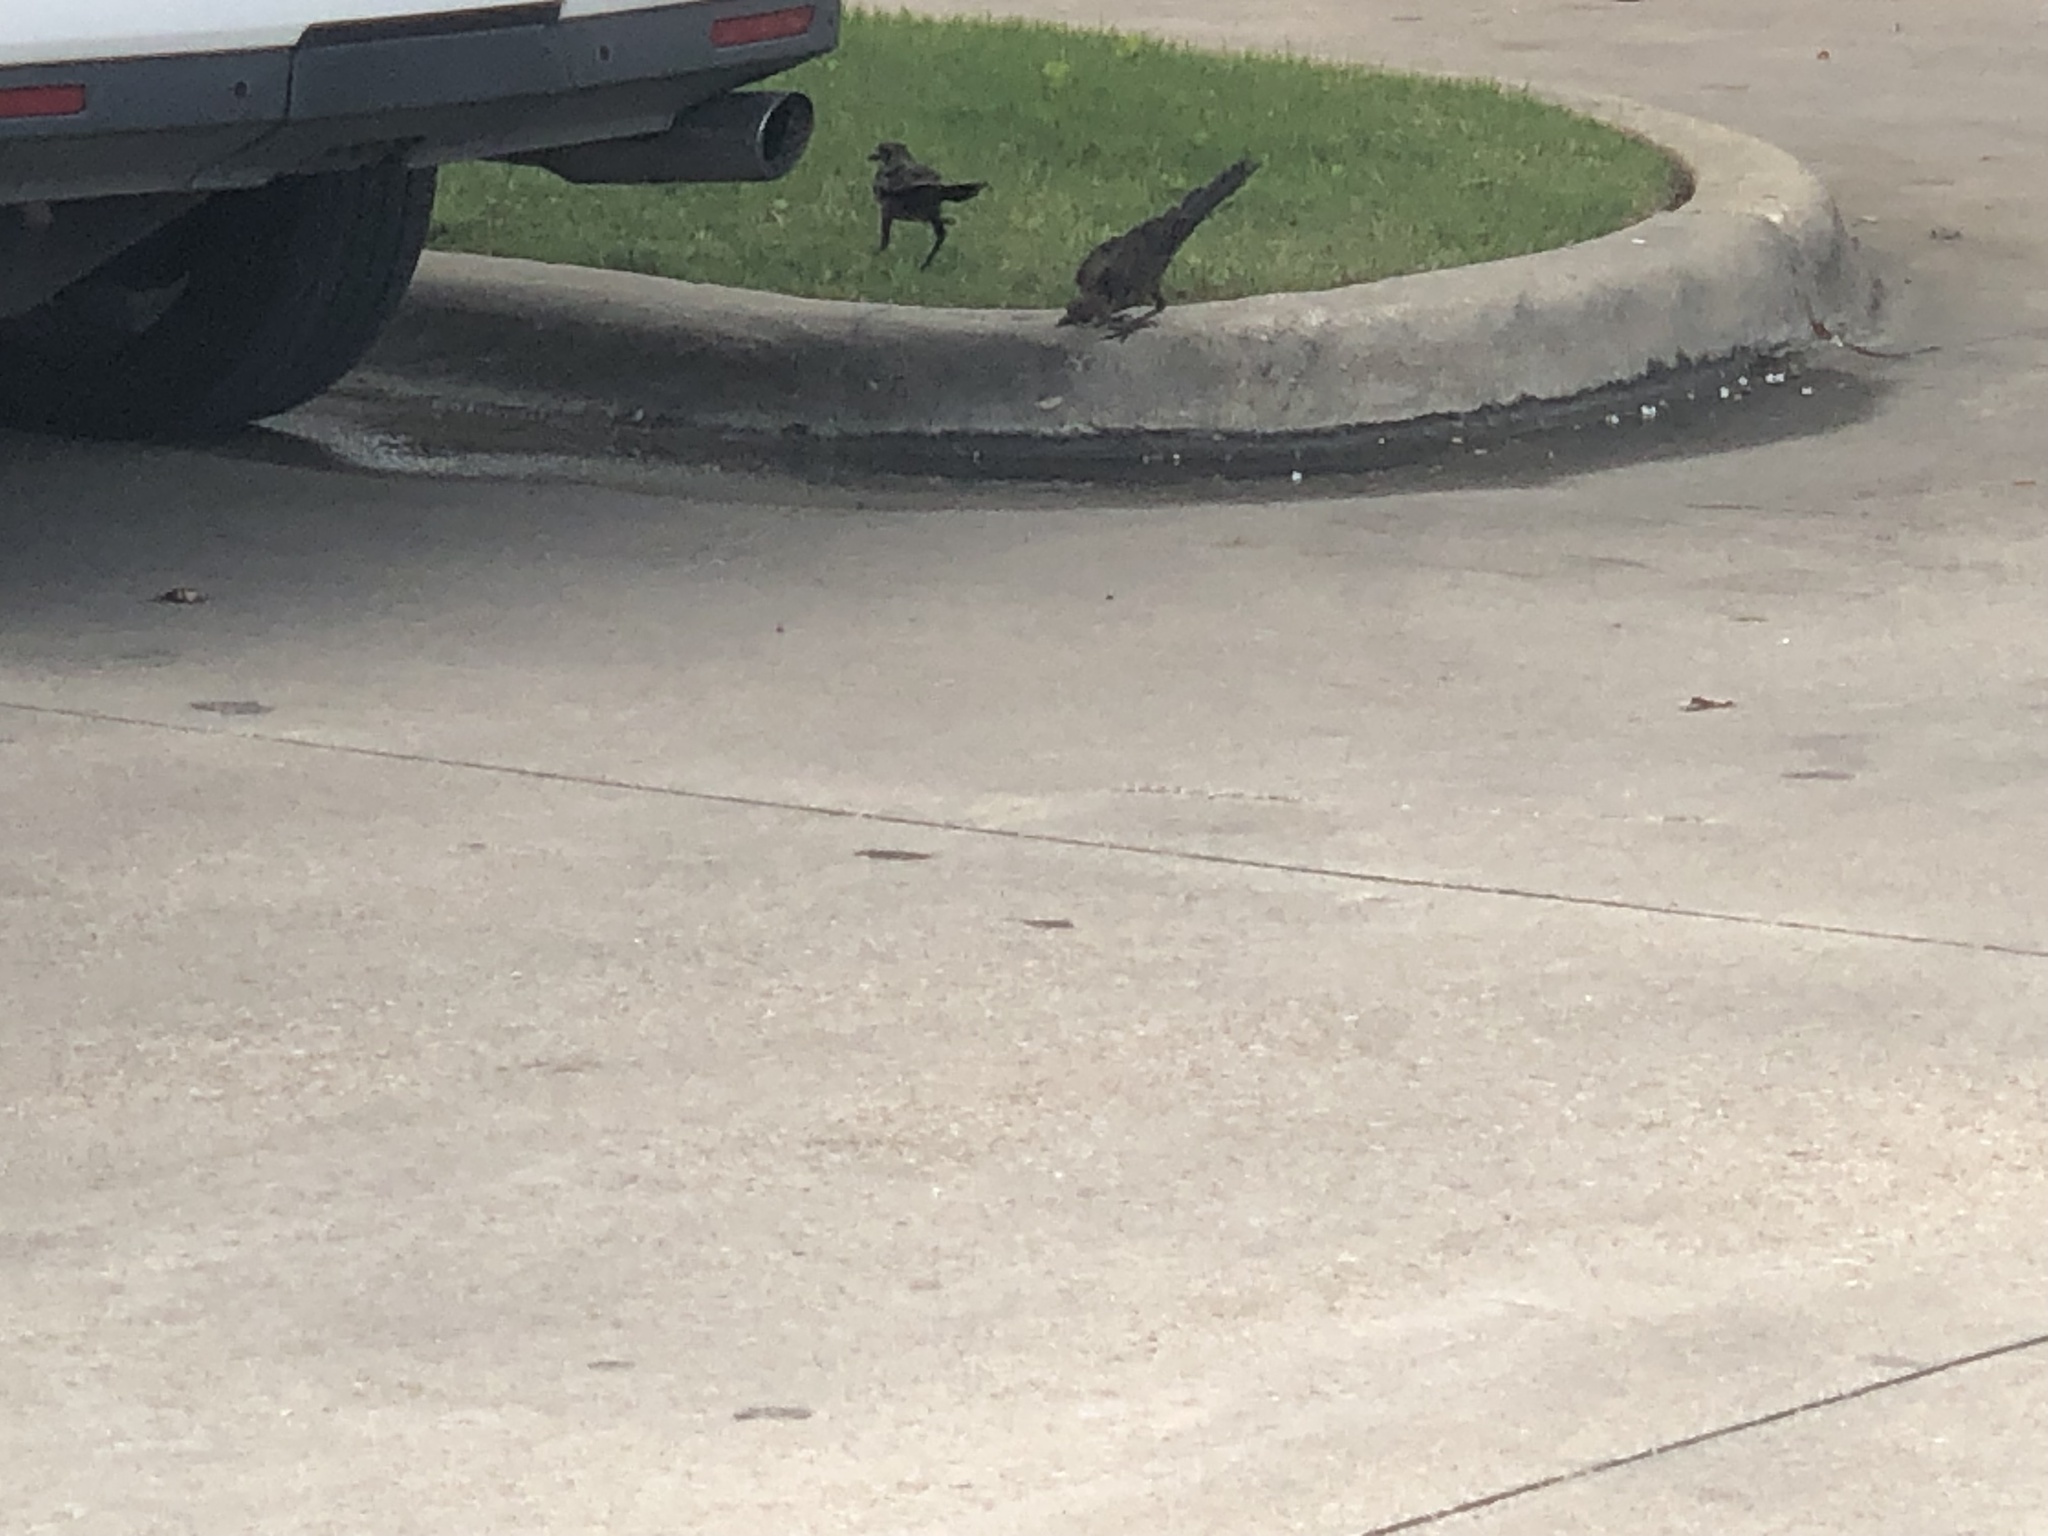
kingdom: Animalia
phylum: Chordata
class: Aves
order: Passeriformes
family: Icteridae
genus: Quiscalus
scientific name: Quiscalus mexicanus
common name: Great-tailed grackle
